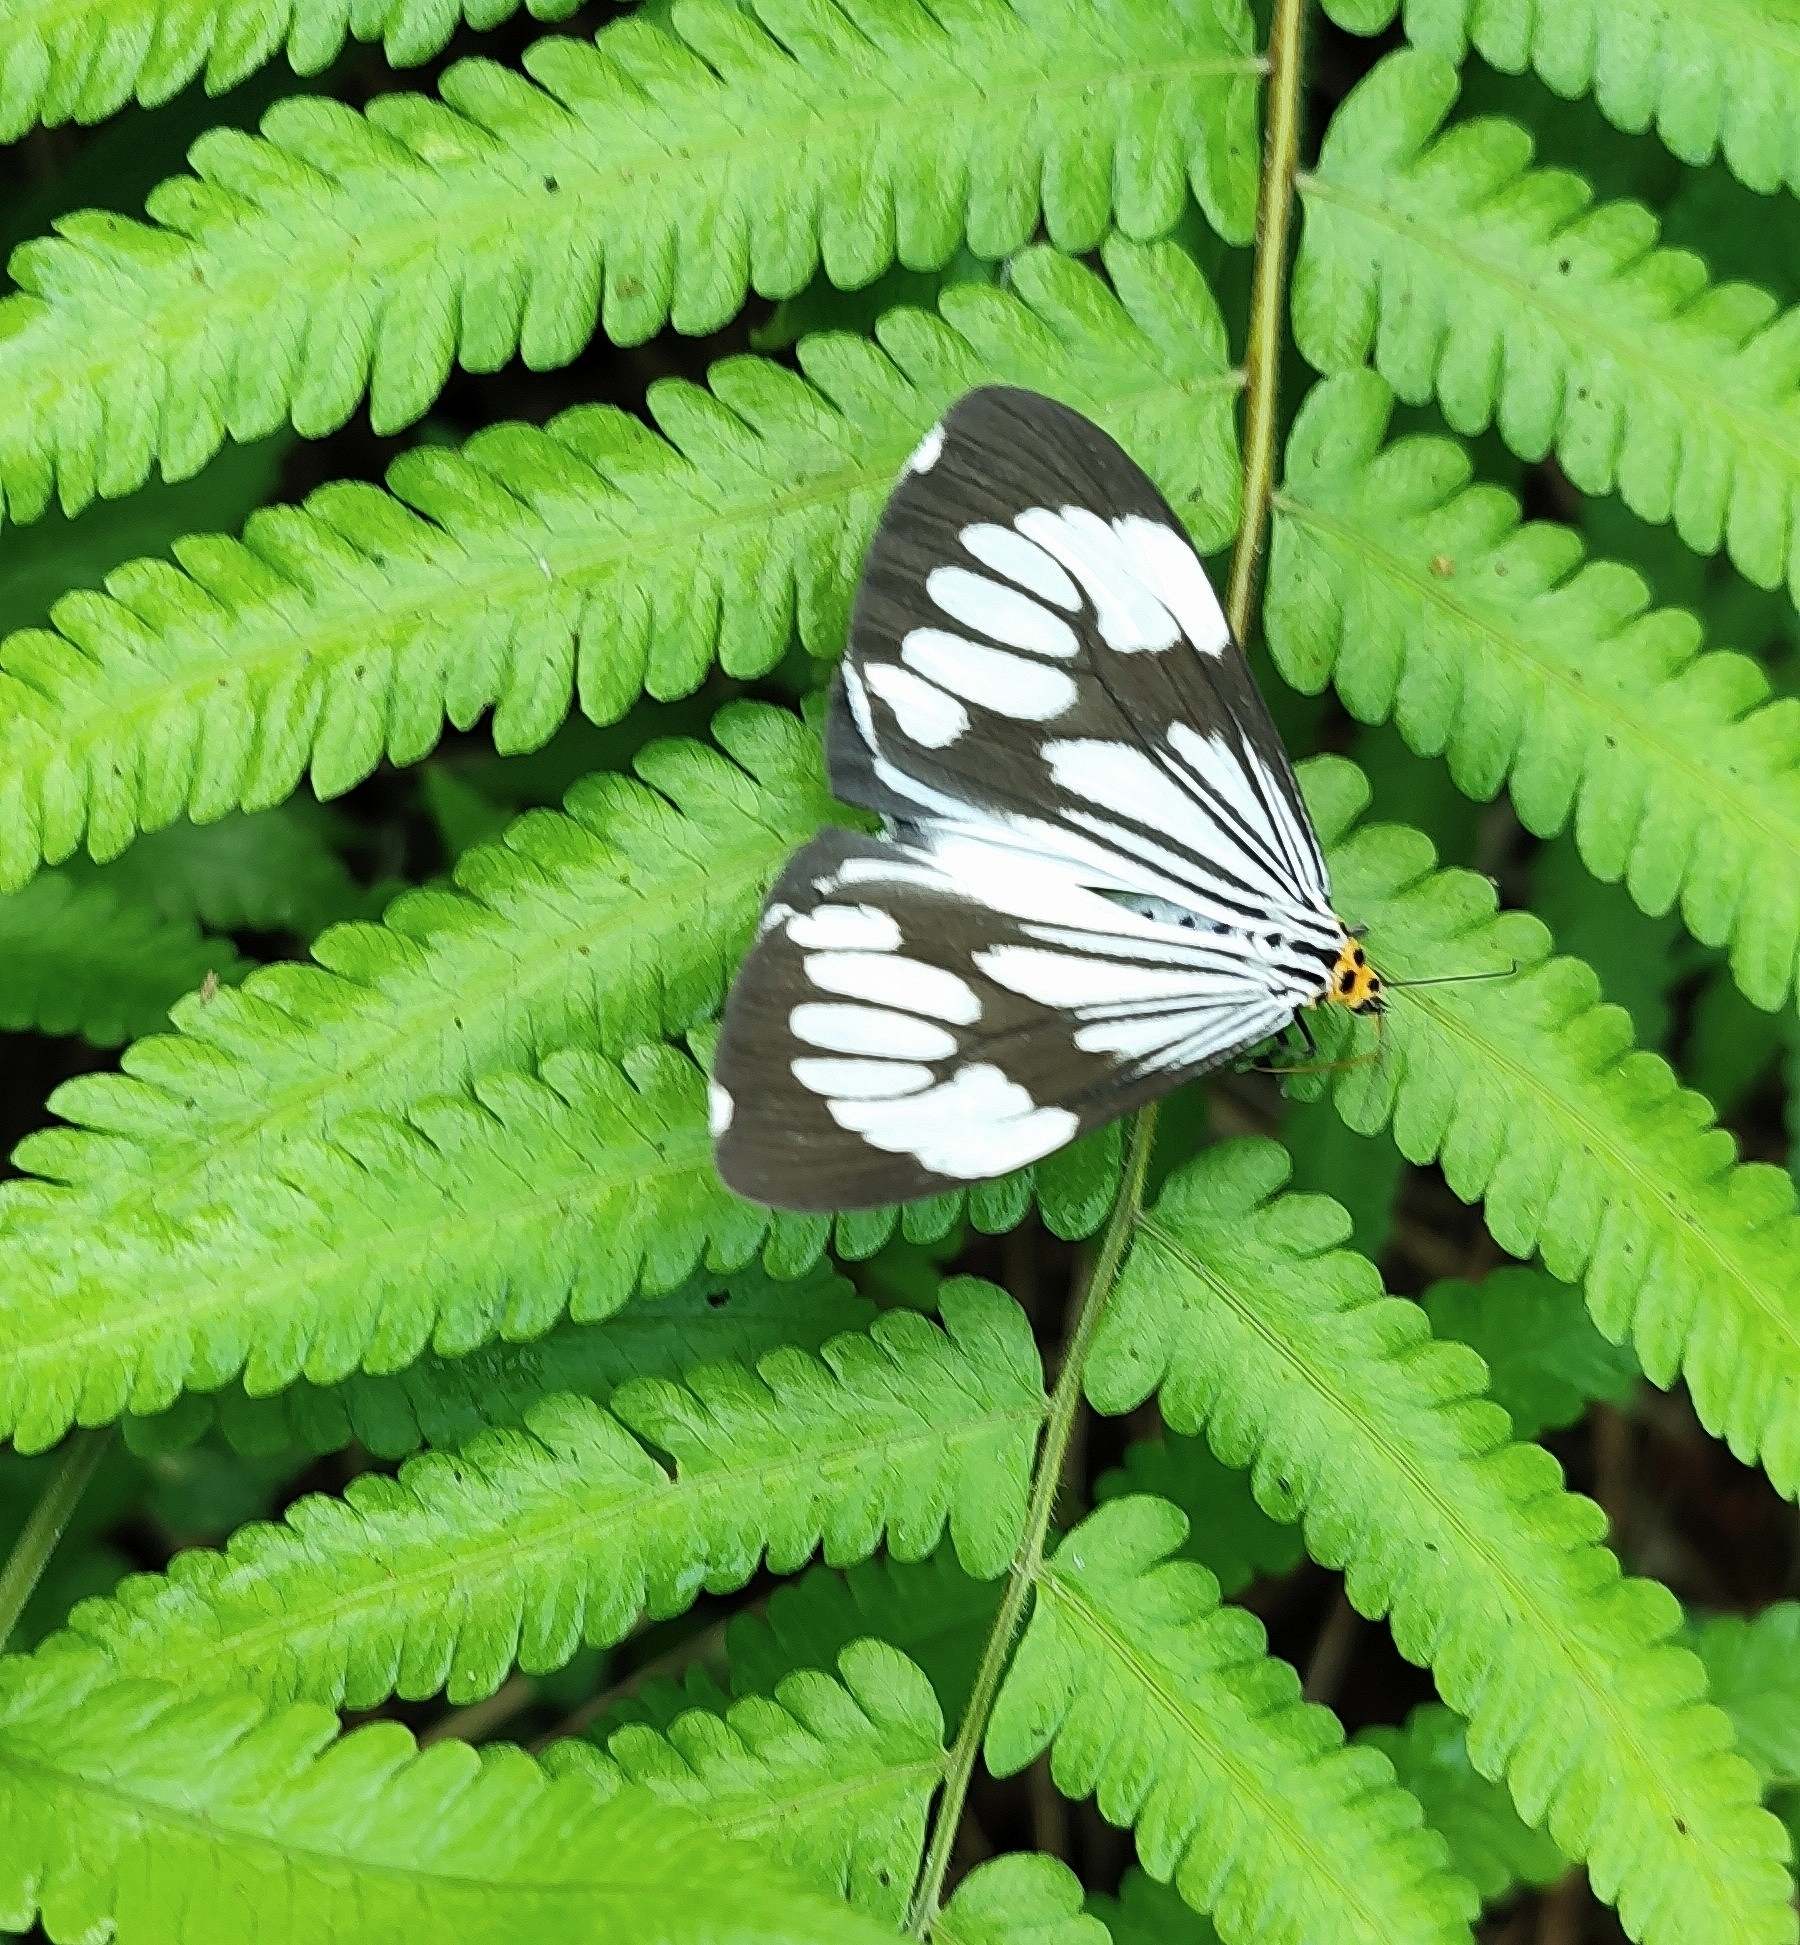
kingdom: Animalia
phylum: Arthropoda
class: Insecta
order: Lepidoptera
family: Erebidae
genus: Nyctemera
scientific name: Nyctemera coleta
